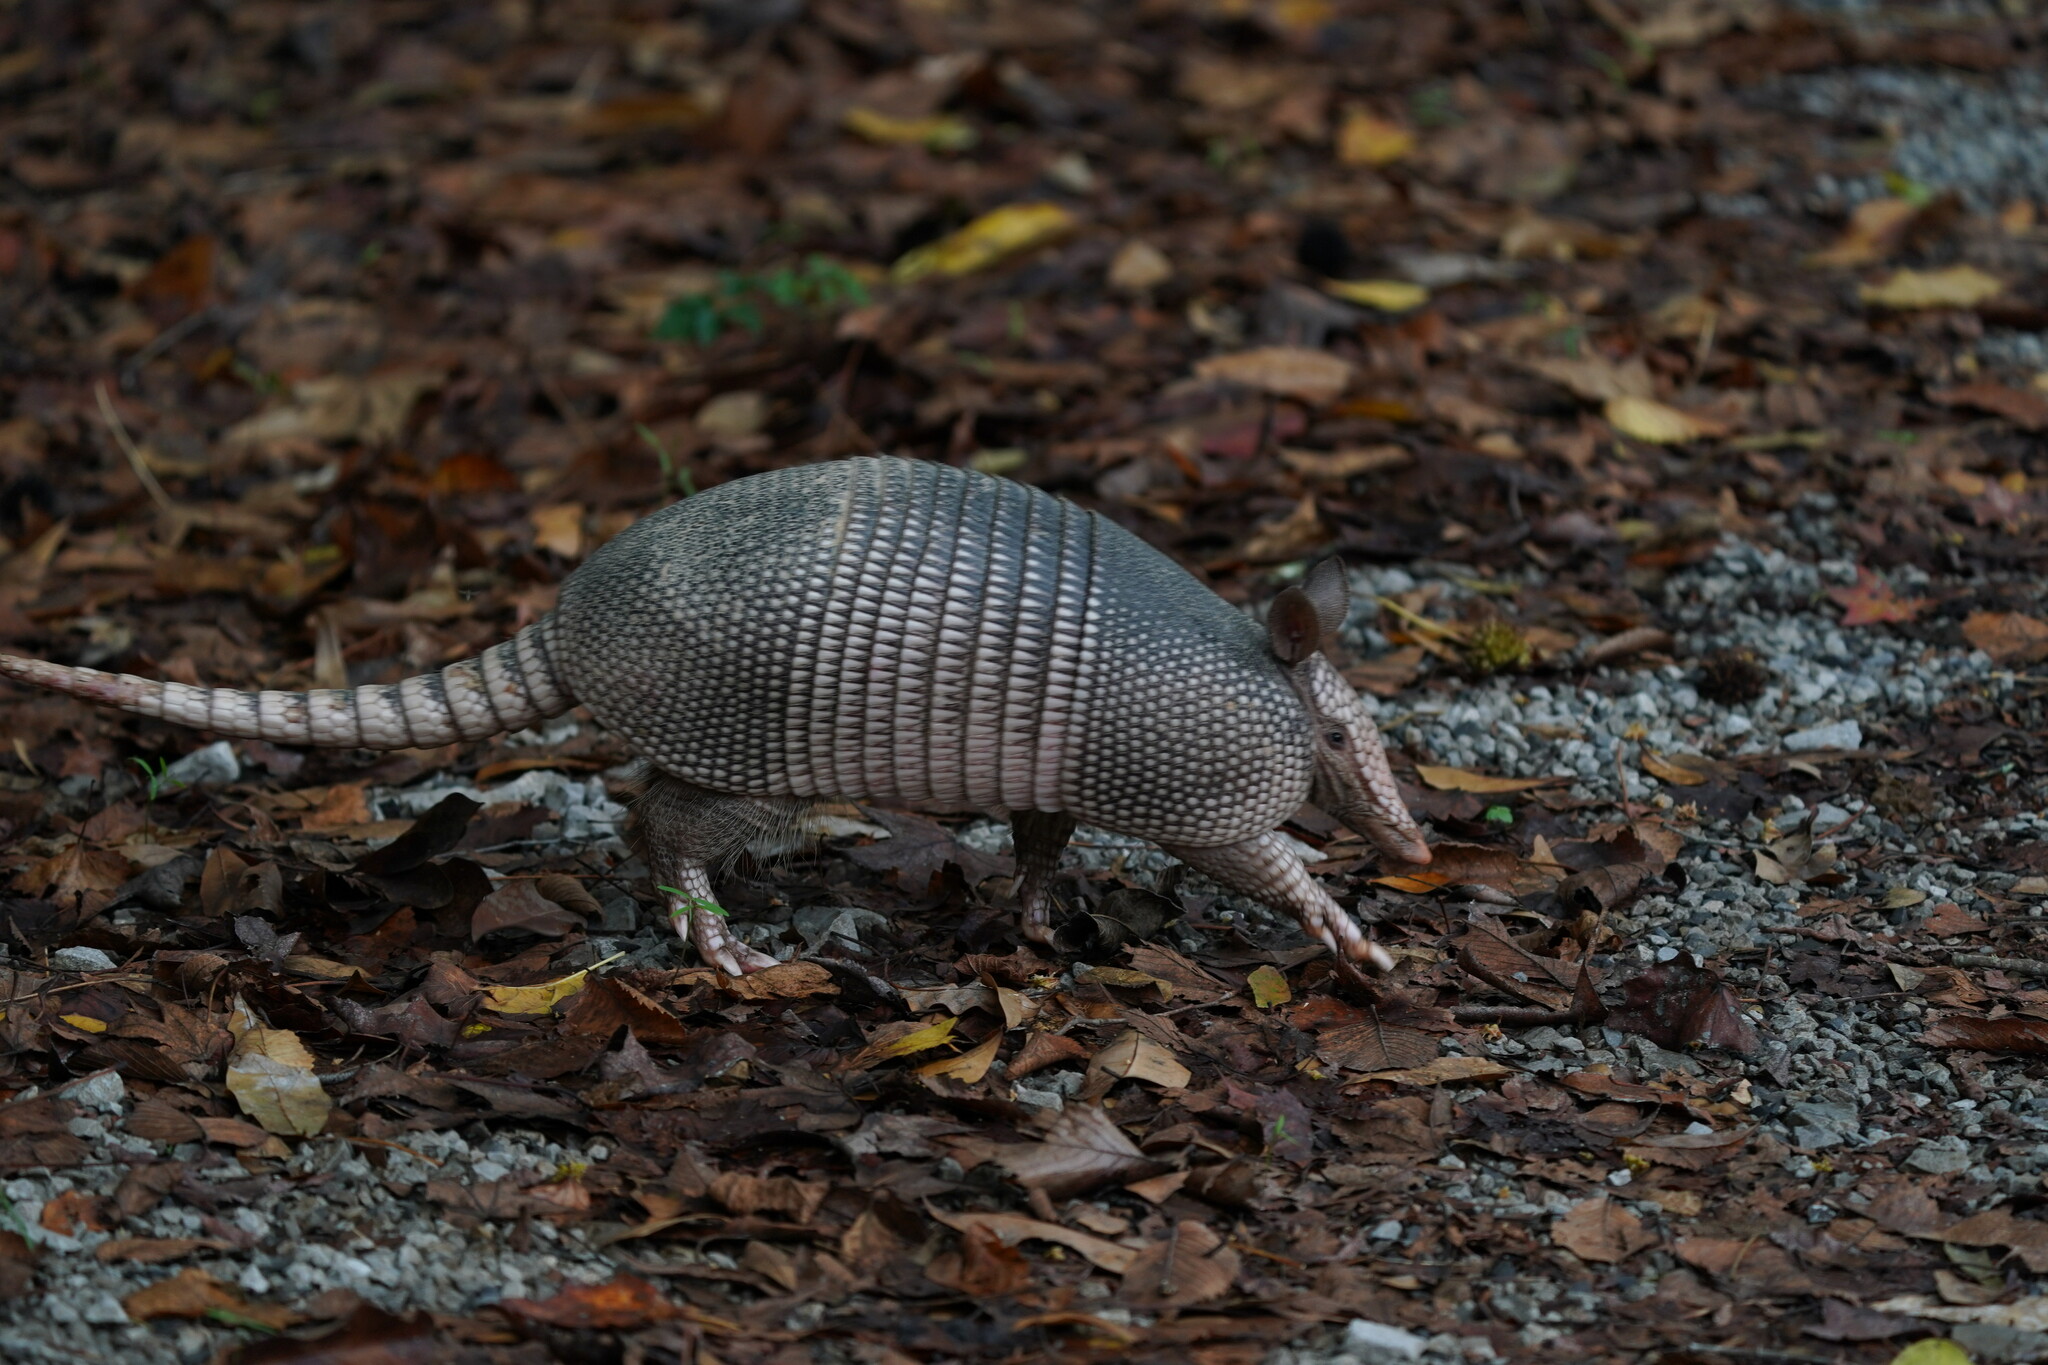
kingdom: Animalia
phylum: Chordata
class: Mammalia
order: Cingulata
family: Dasypodidae
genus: Dasypus
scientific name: Dasypus novemcinctus
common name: Nine-banded armadillo
